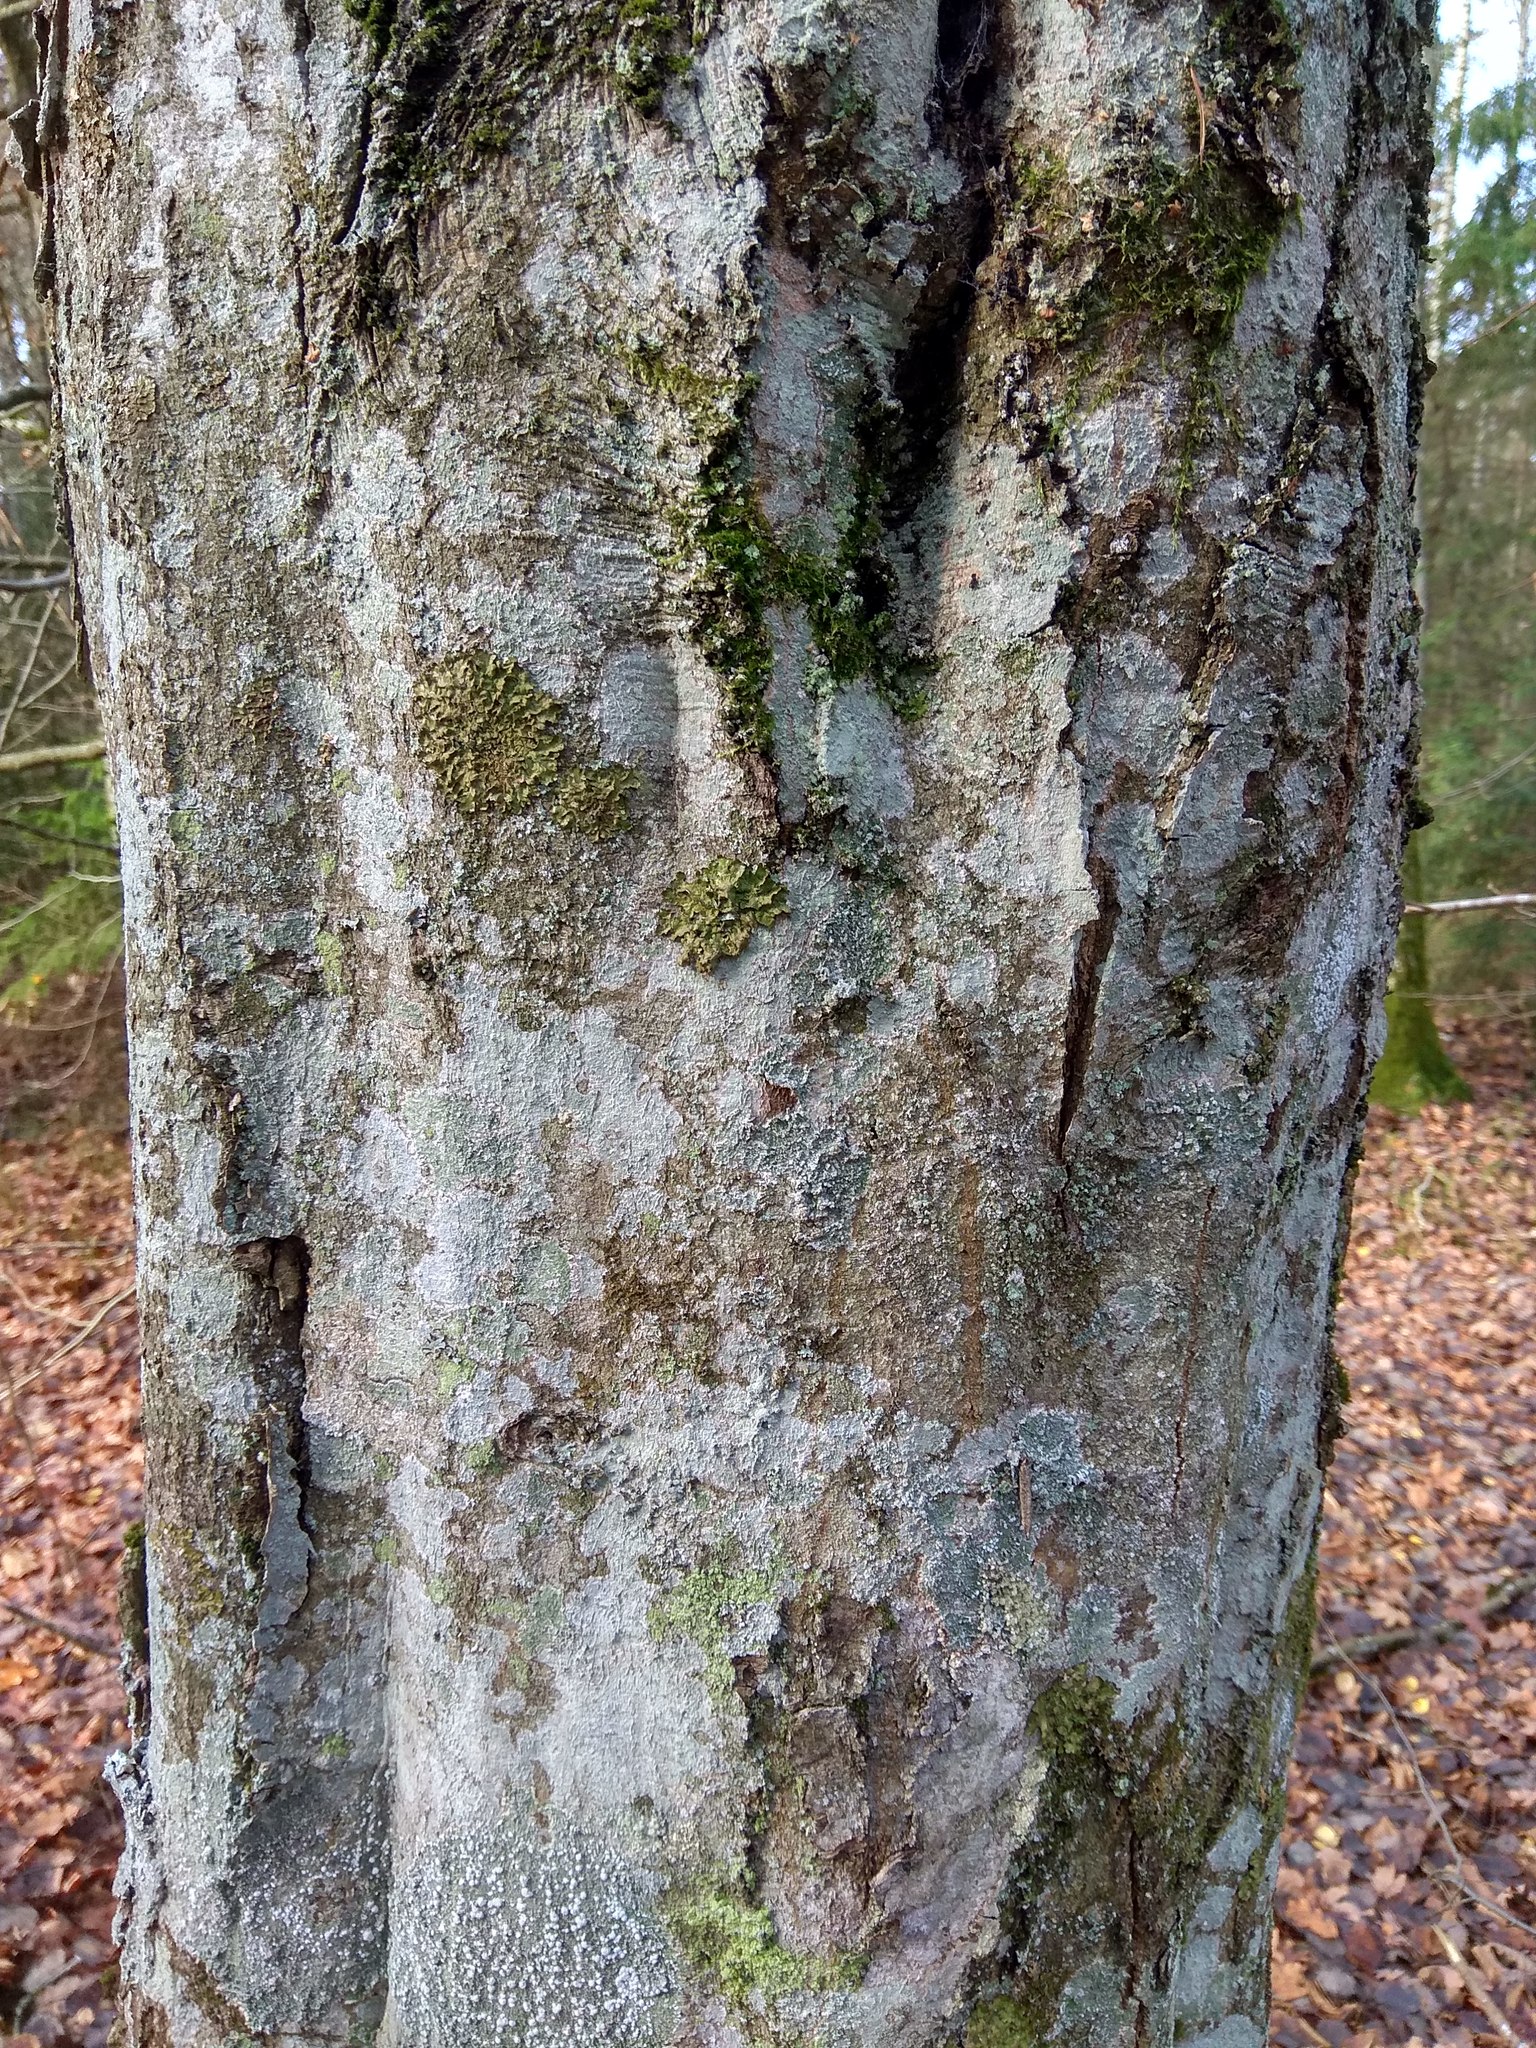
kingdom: Plantae
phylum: Tracheophyta
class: Magnoliopsida
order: Fagales
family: Betulaceae
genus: Carpinus
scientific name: Carpinus betulus
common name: Hornbeam
